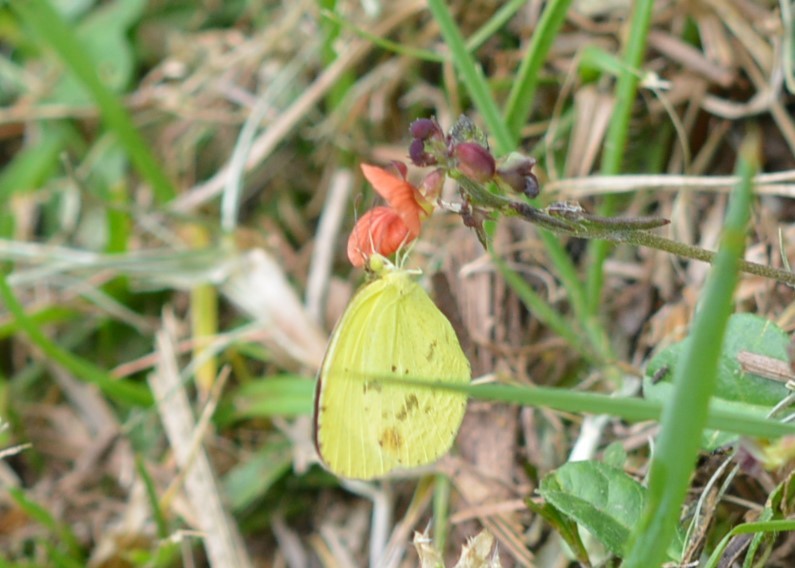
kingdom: Animalia
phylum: Arthropoda
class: Insecta
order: Lepidoptera
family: Pieridae
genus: Eurema
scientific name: Eurema daira
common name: Barred sulphur
